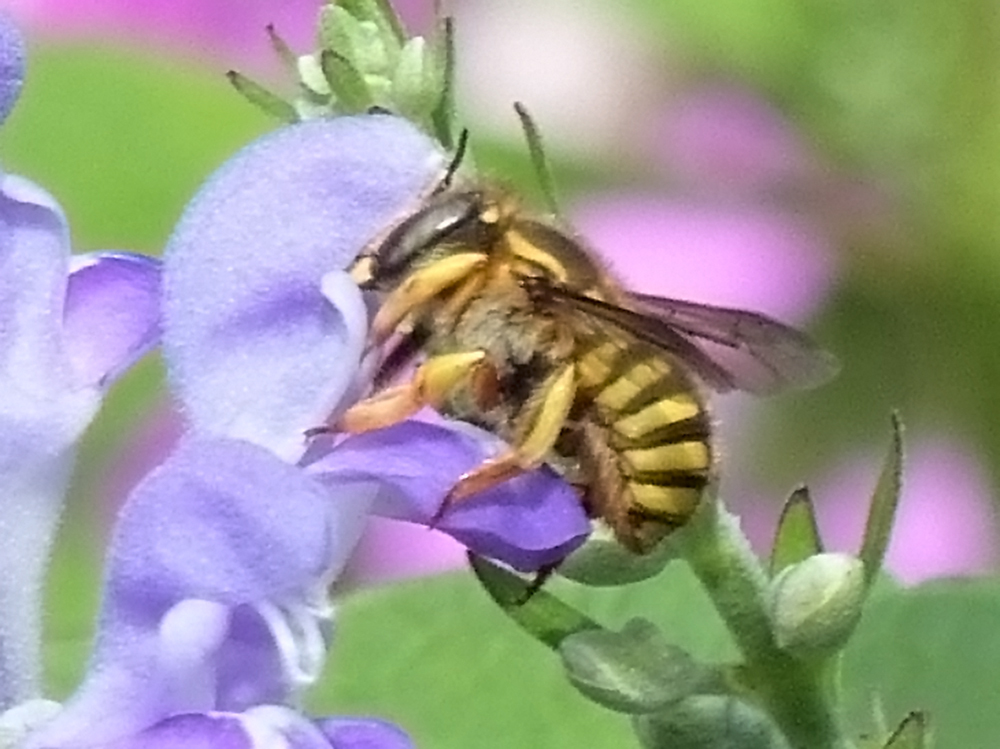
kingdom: Animalia
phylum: Arthropoda
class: Insecta
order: Hymenoptera
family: Megachilidae
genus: Anthidium
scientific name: Anthidium manicatum
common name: Wool carder bee
